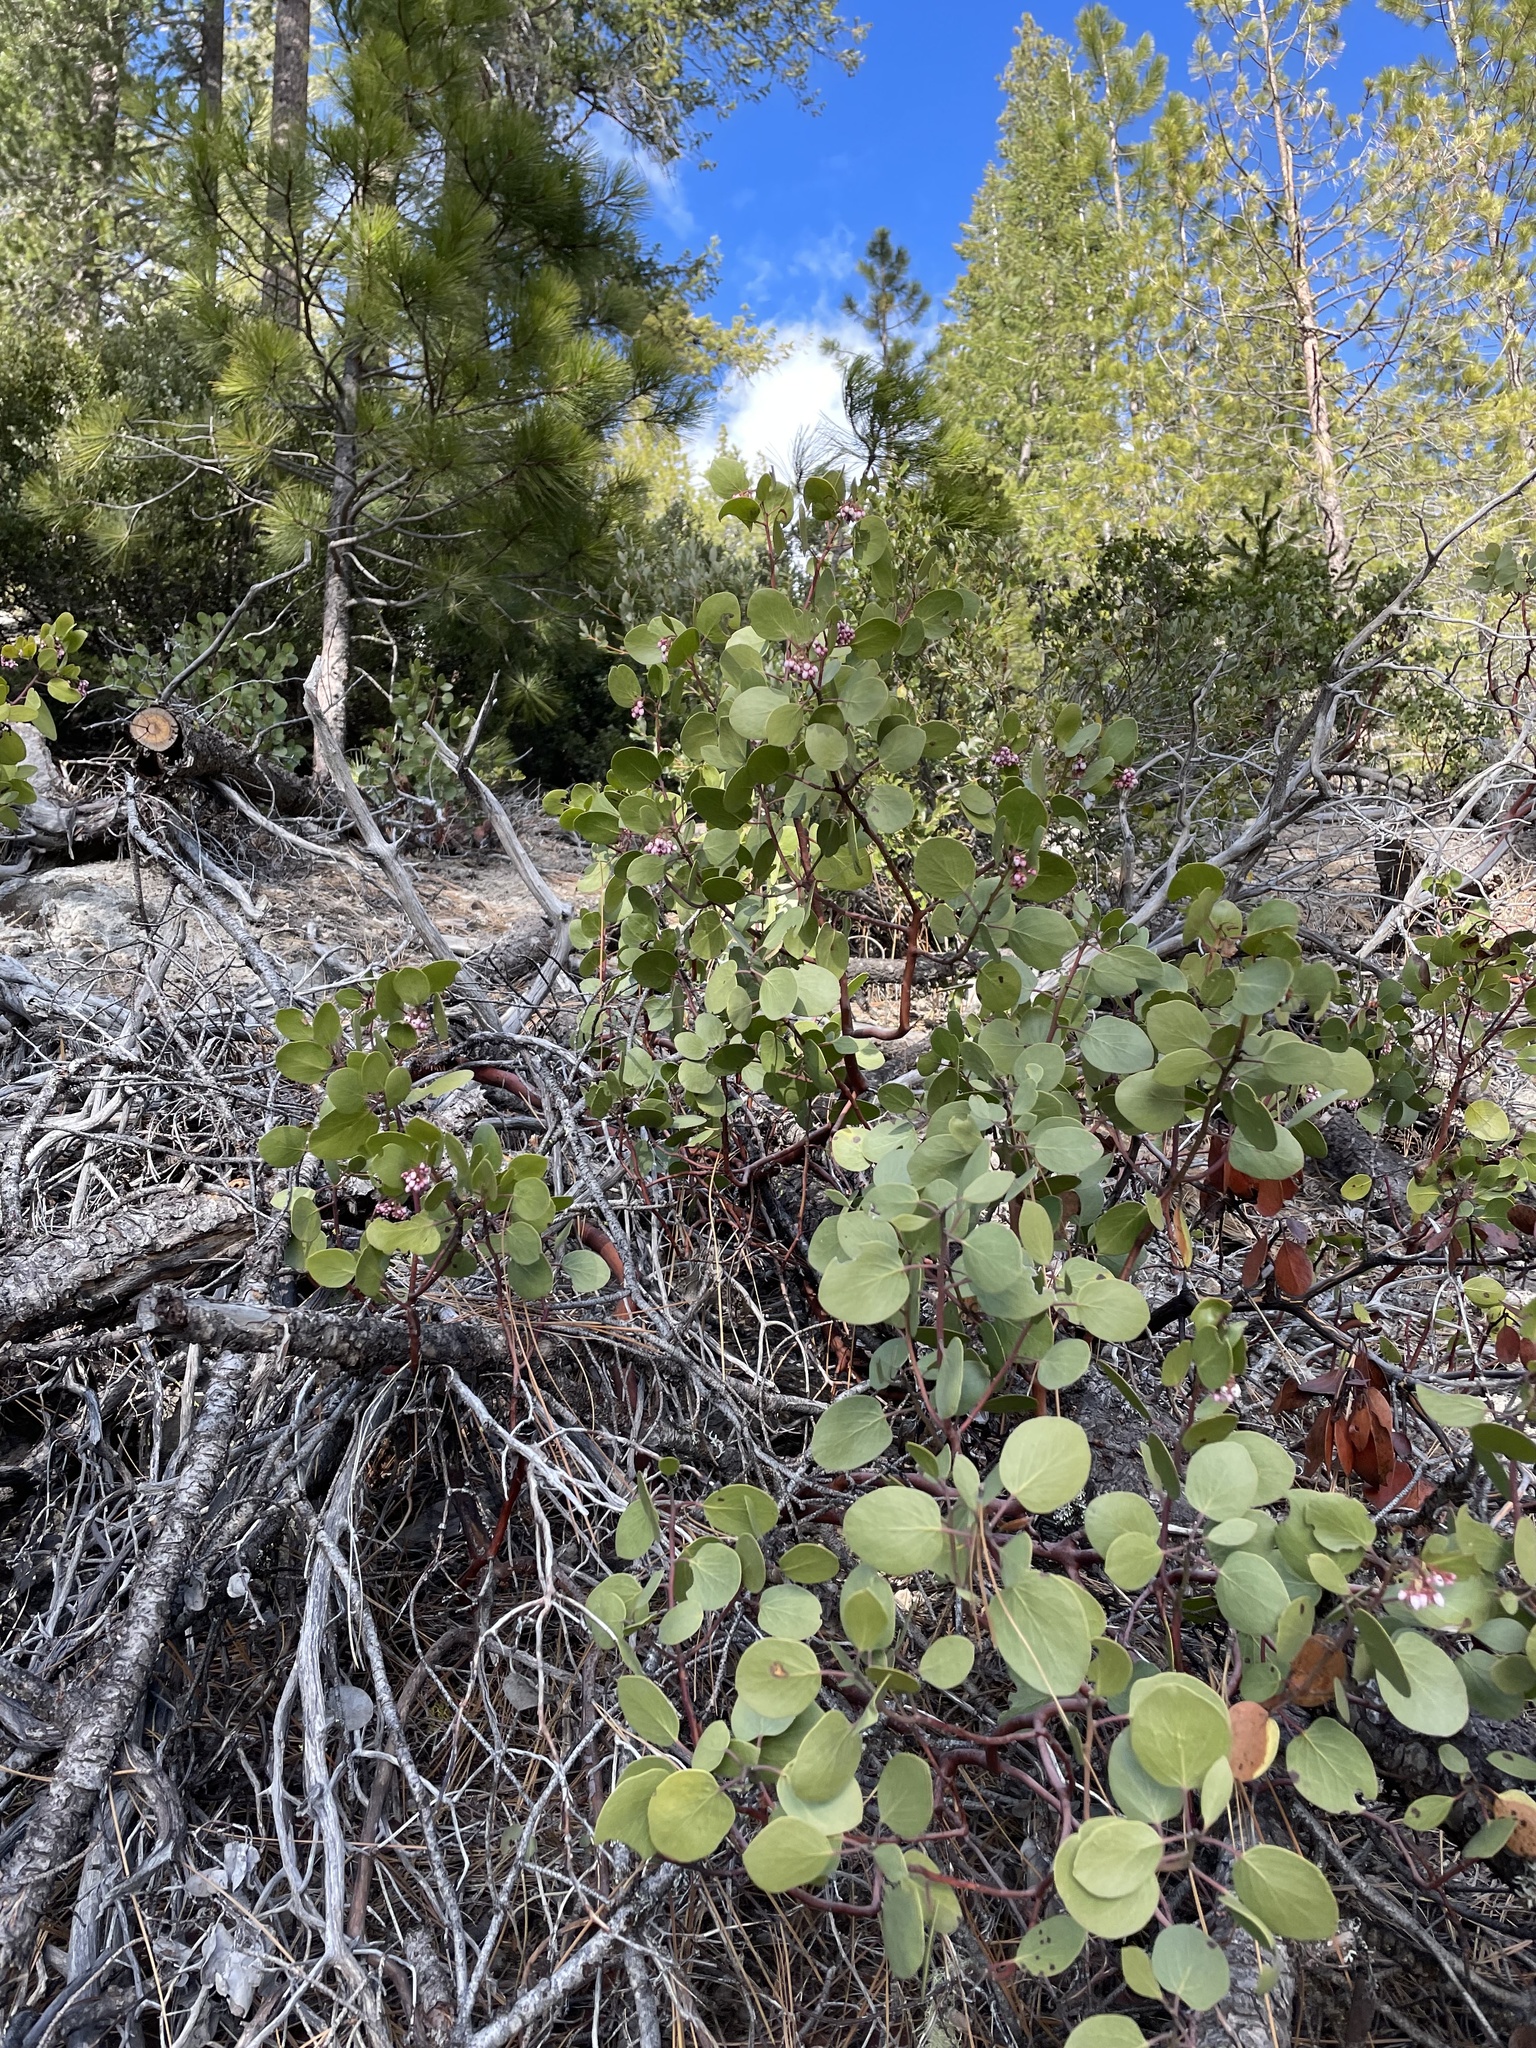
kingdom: Plantae
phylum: Tracheophyta
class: Magnoliopsida
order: Ericales
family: Ericaceae
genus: Arctostaphylos
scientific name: Arctostaphylos patula
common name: Green-leaf manzanita
